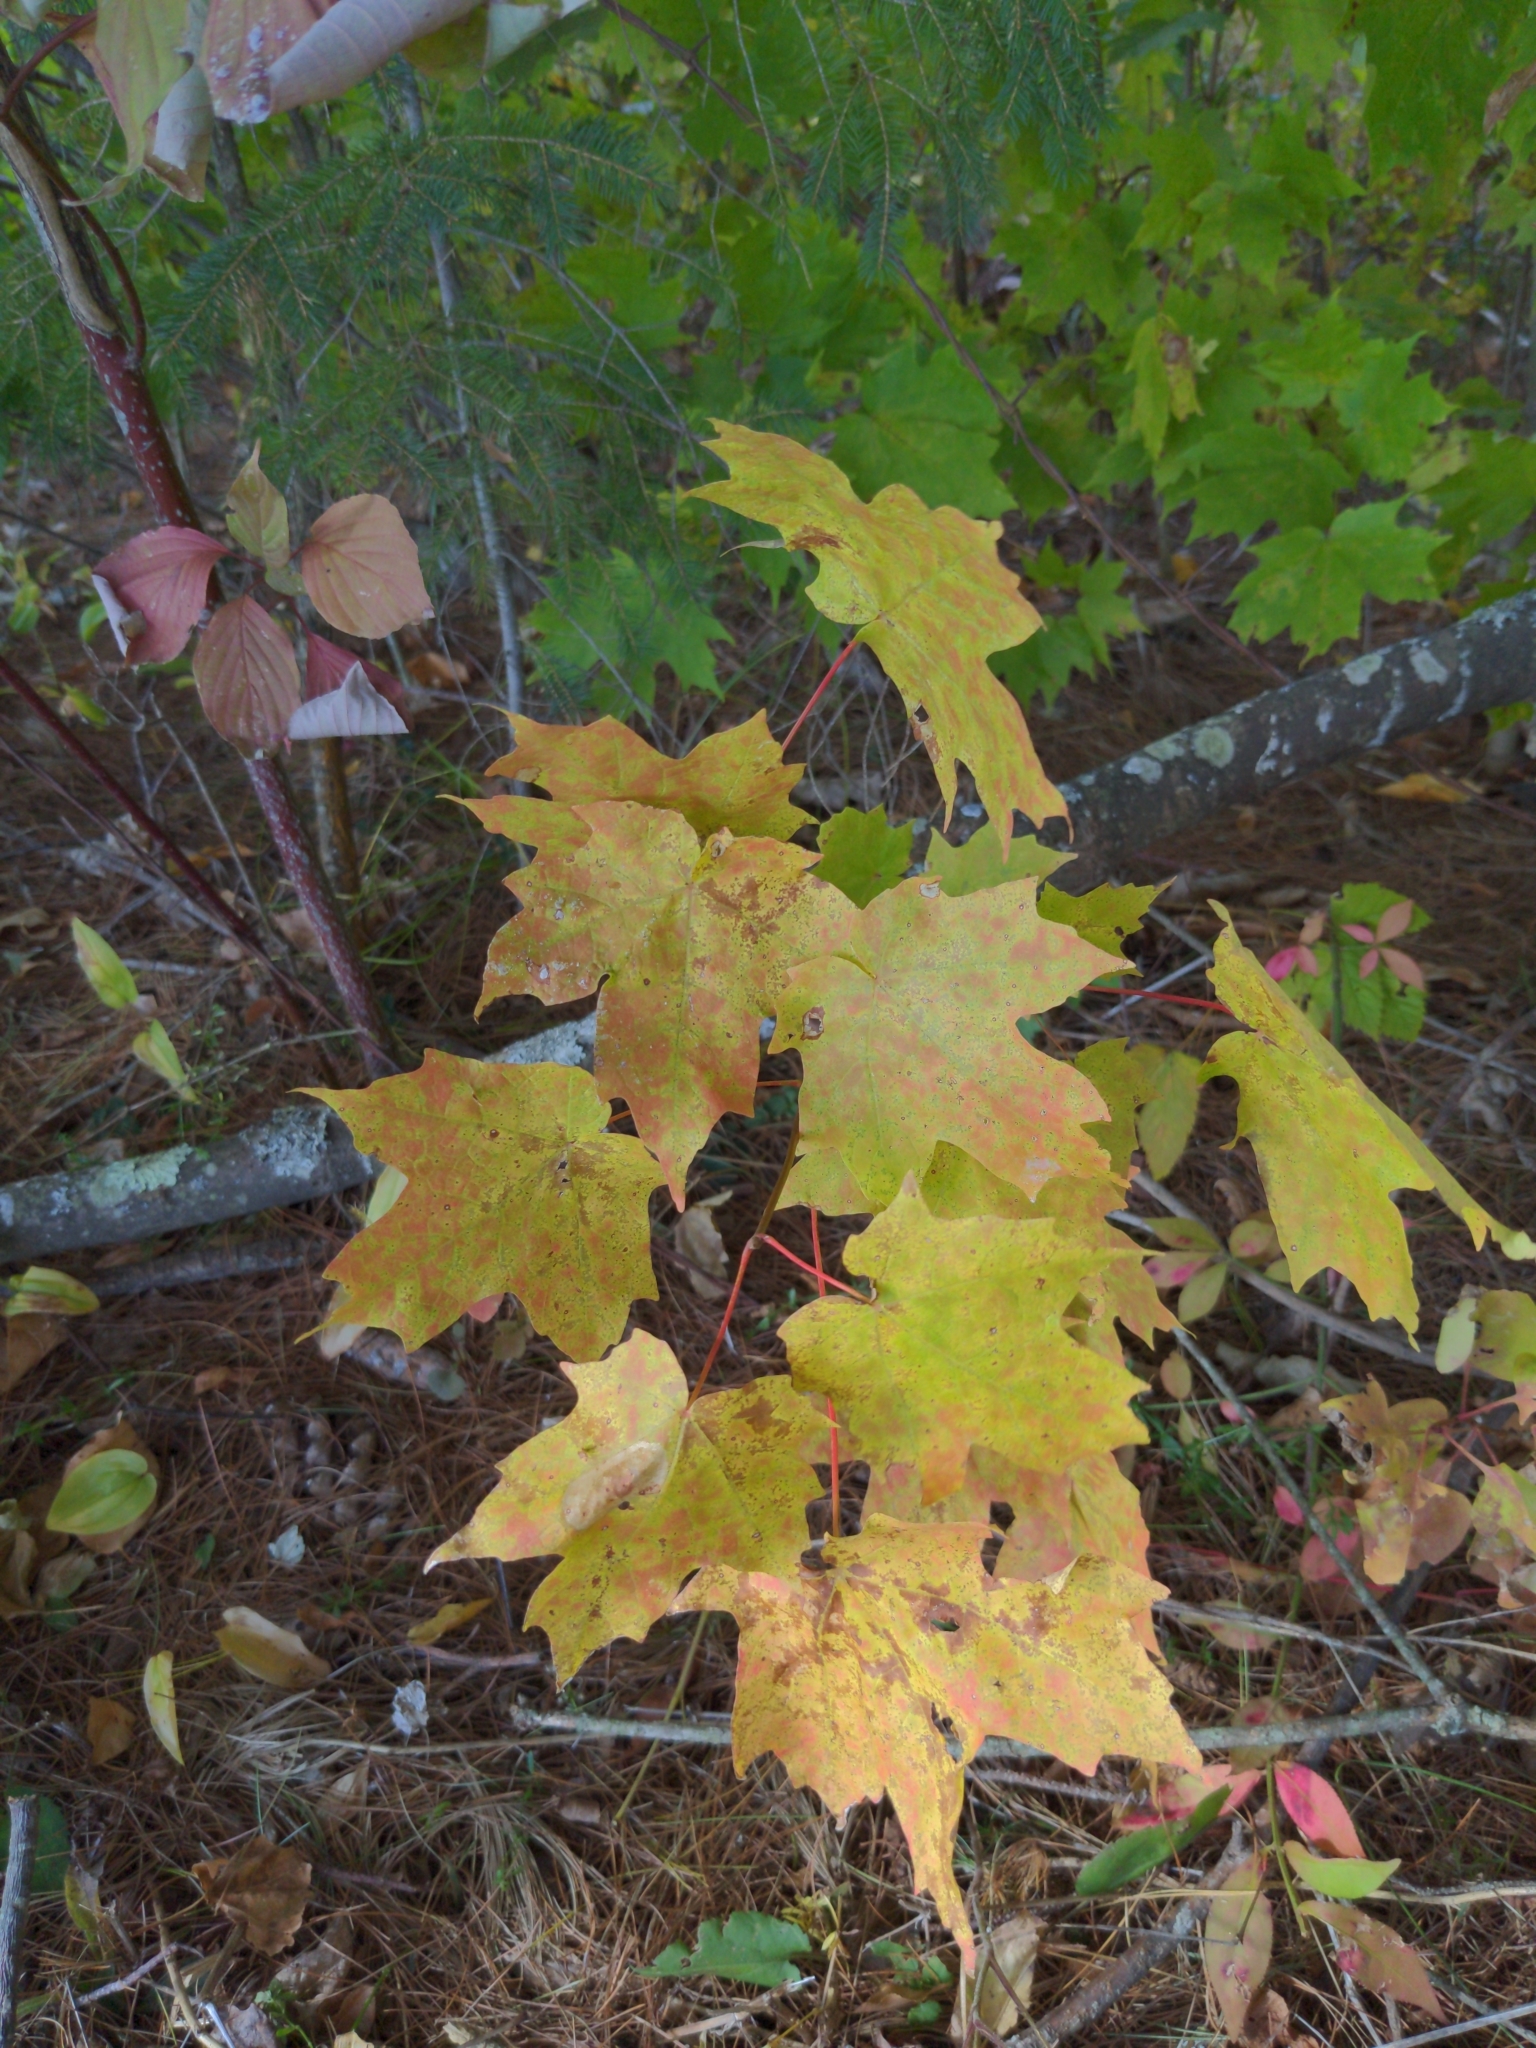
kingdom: Plantae
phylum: Tracheophyta
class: Magnoliopsida
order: Sapindales
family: Sapindaceae
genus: Acer
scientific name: Acer saccharum
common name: Sugar maple
